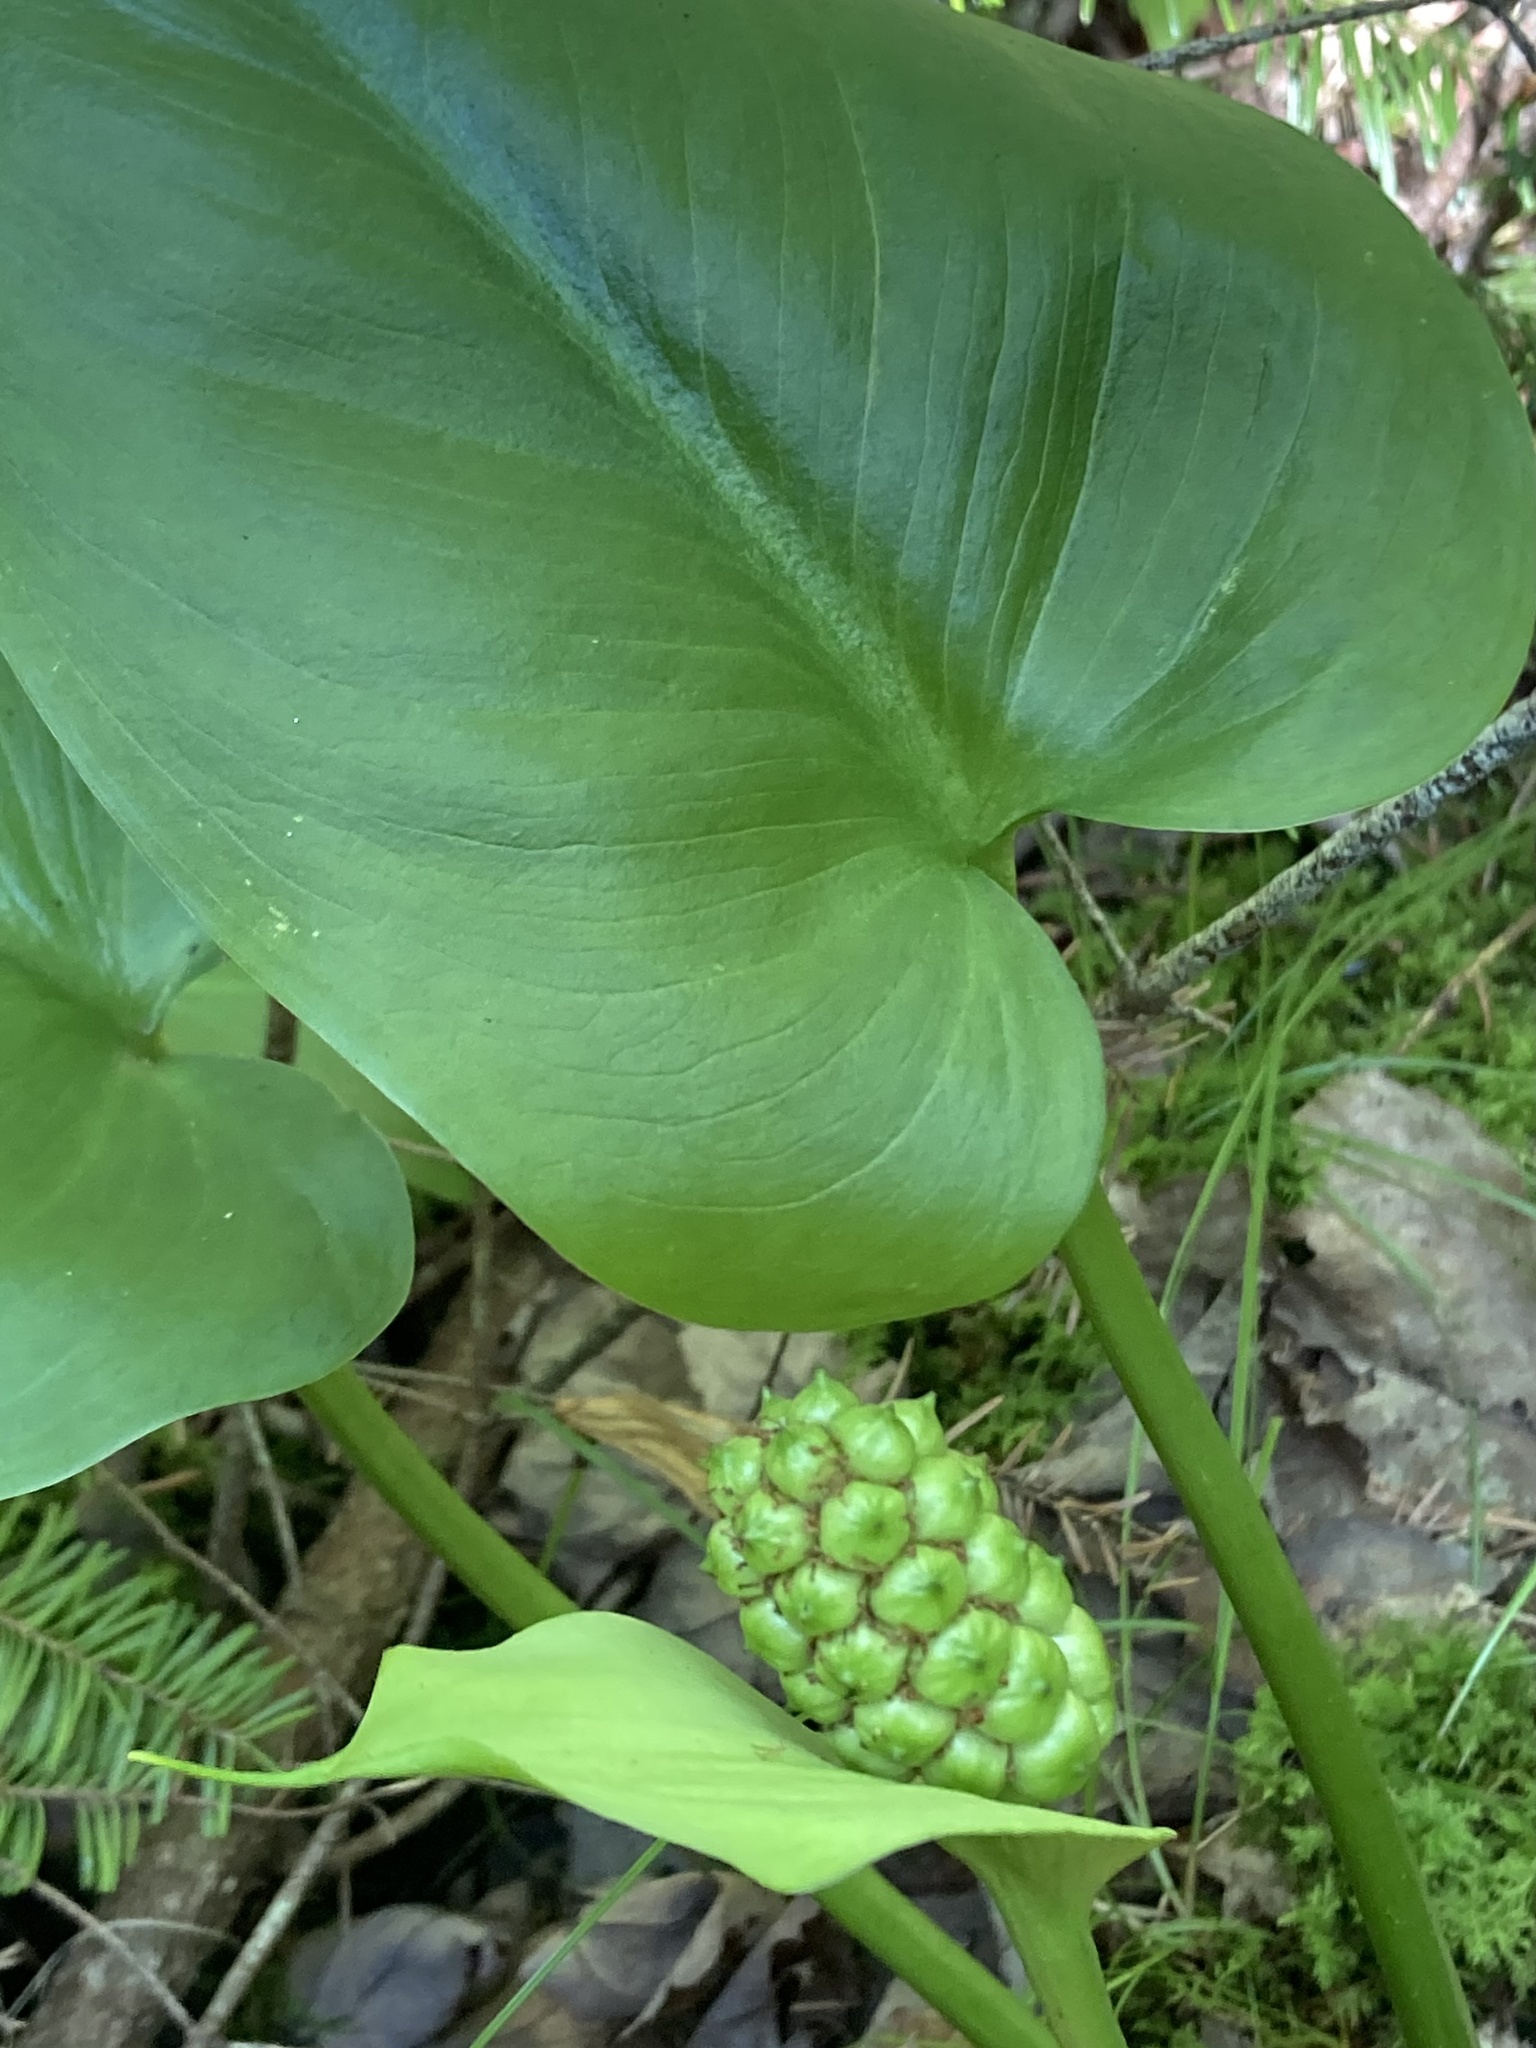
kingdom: Plantae
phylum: Tracheophyta
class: Liliopsida
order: Alismatales
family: Araceae
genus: Calla
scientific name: Calla palustris
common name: Bog arum
